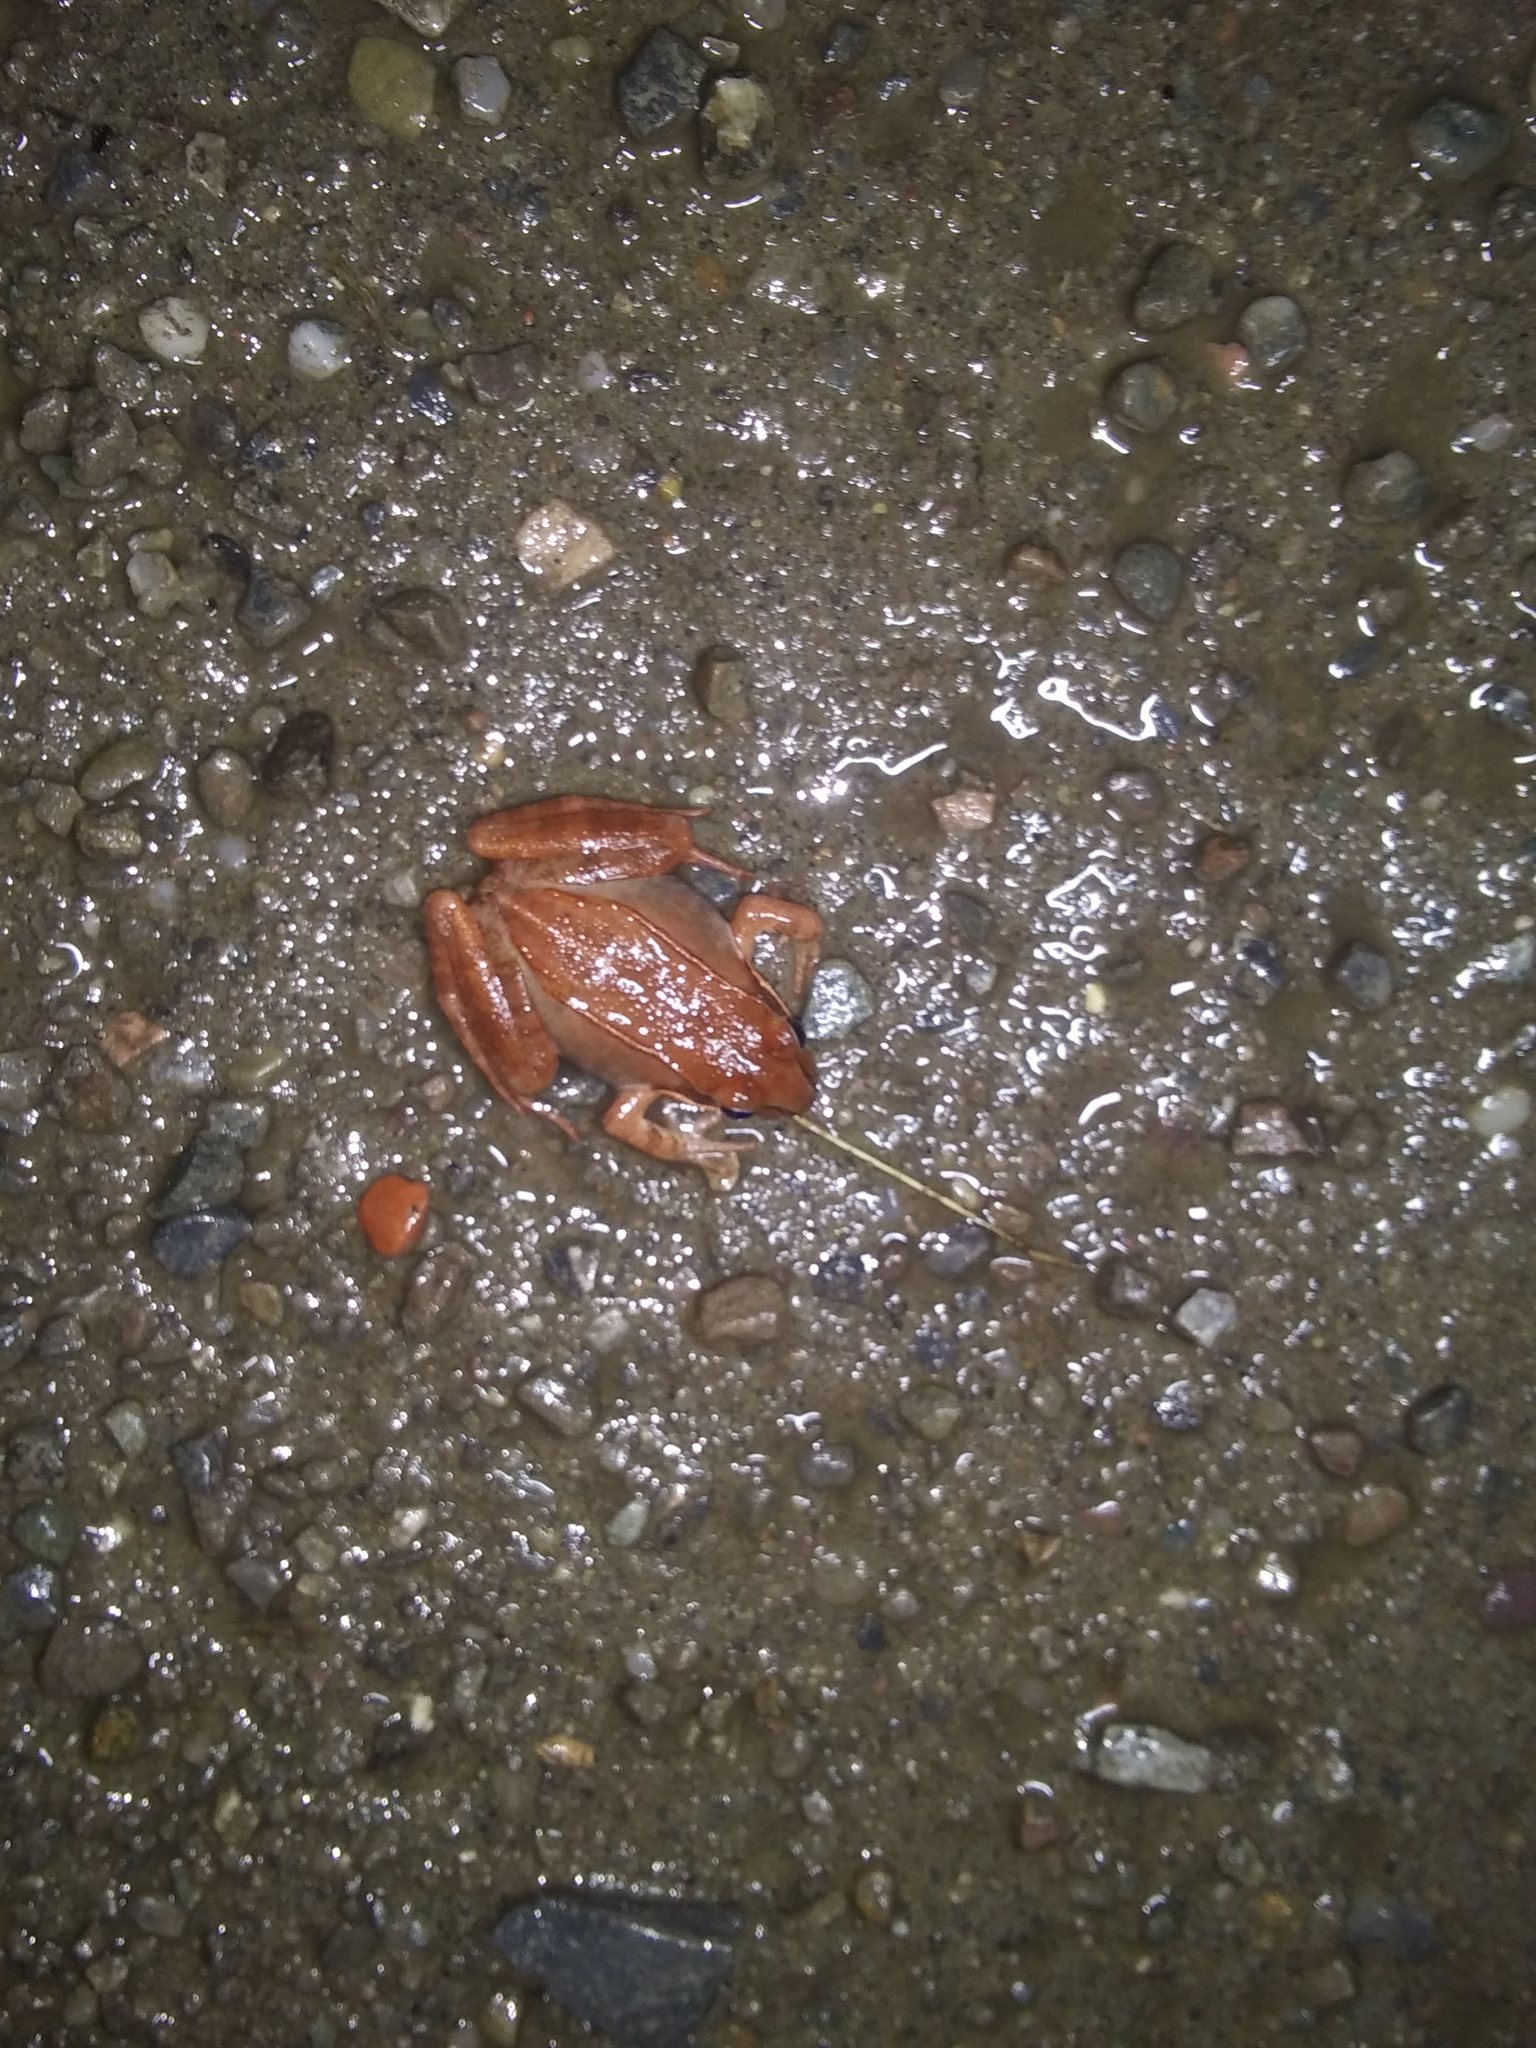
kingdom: Animalia
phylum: Chordata
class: Amphibia
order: Anura
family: Ranidae
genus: Lithobates
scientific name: Lithobates sylvaticus
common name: Wood frog
